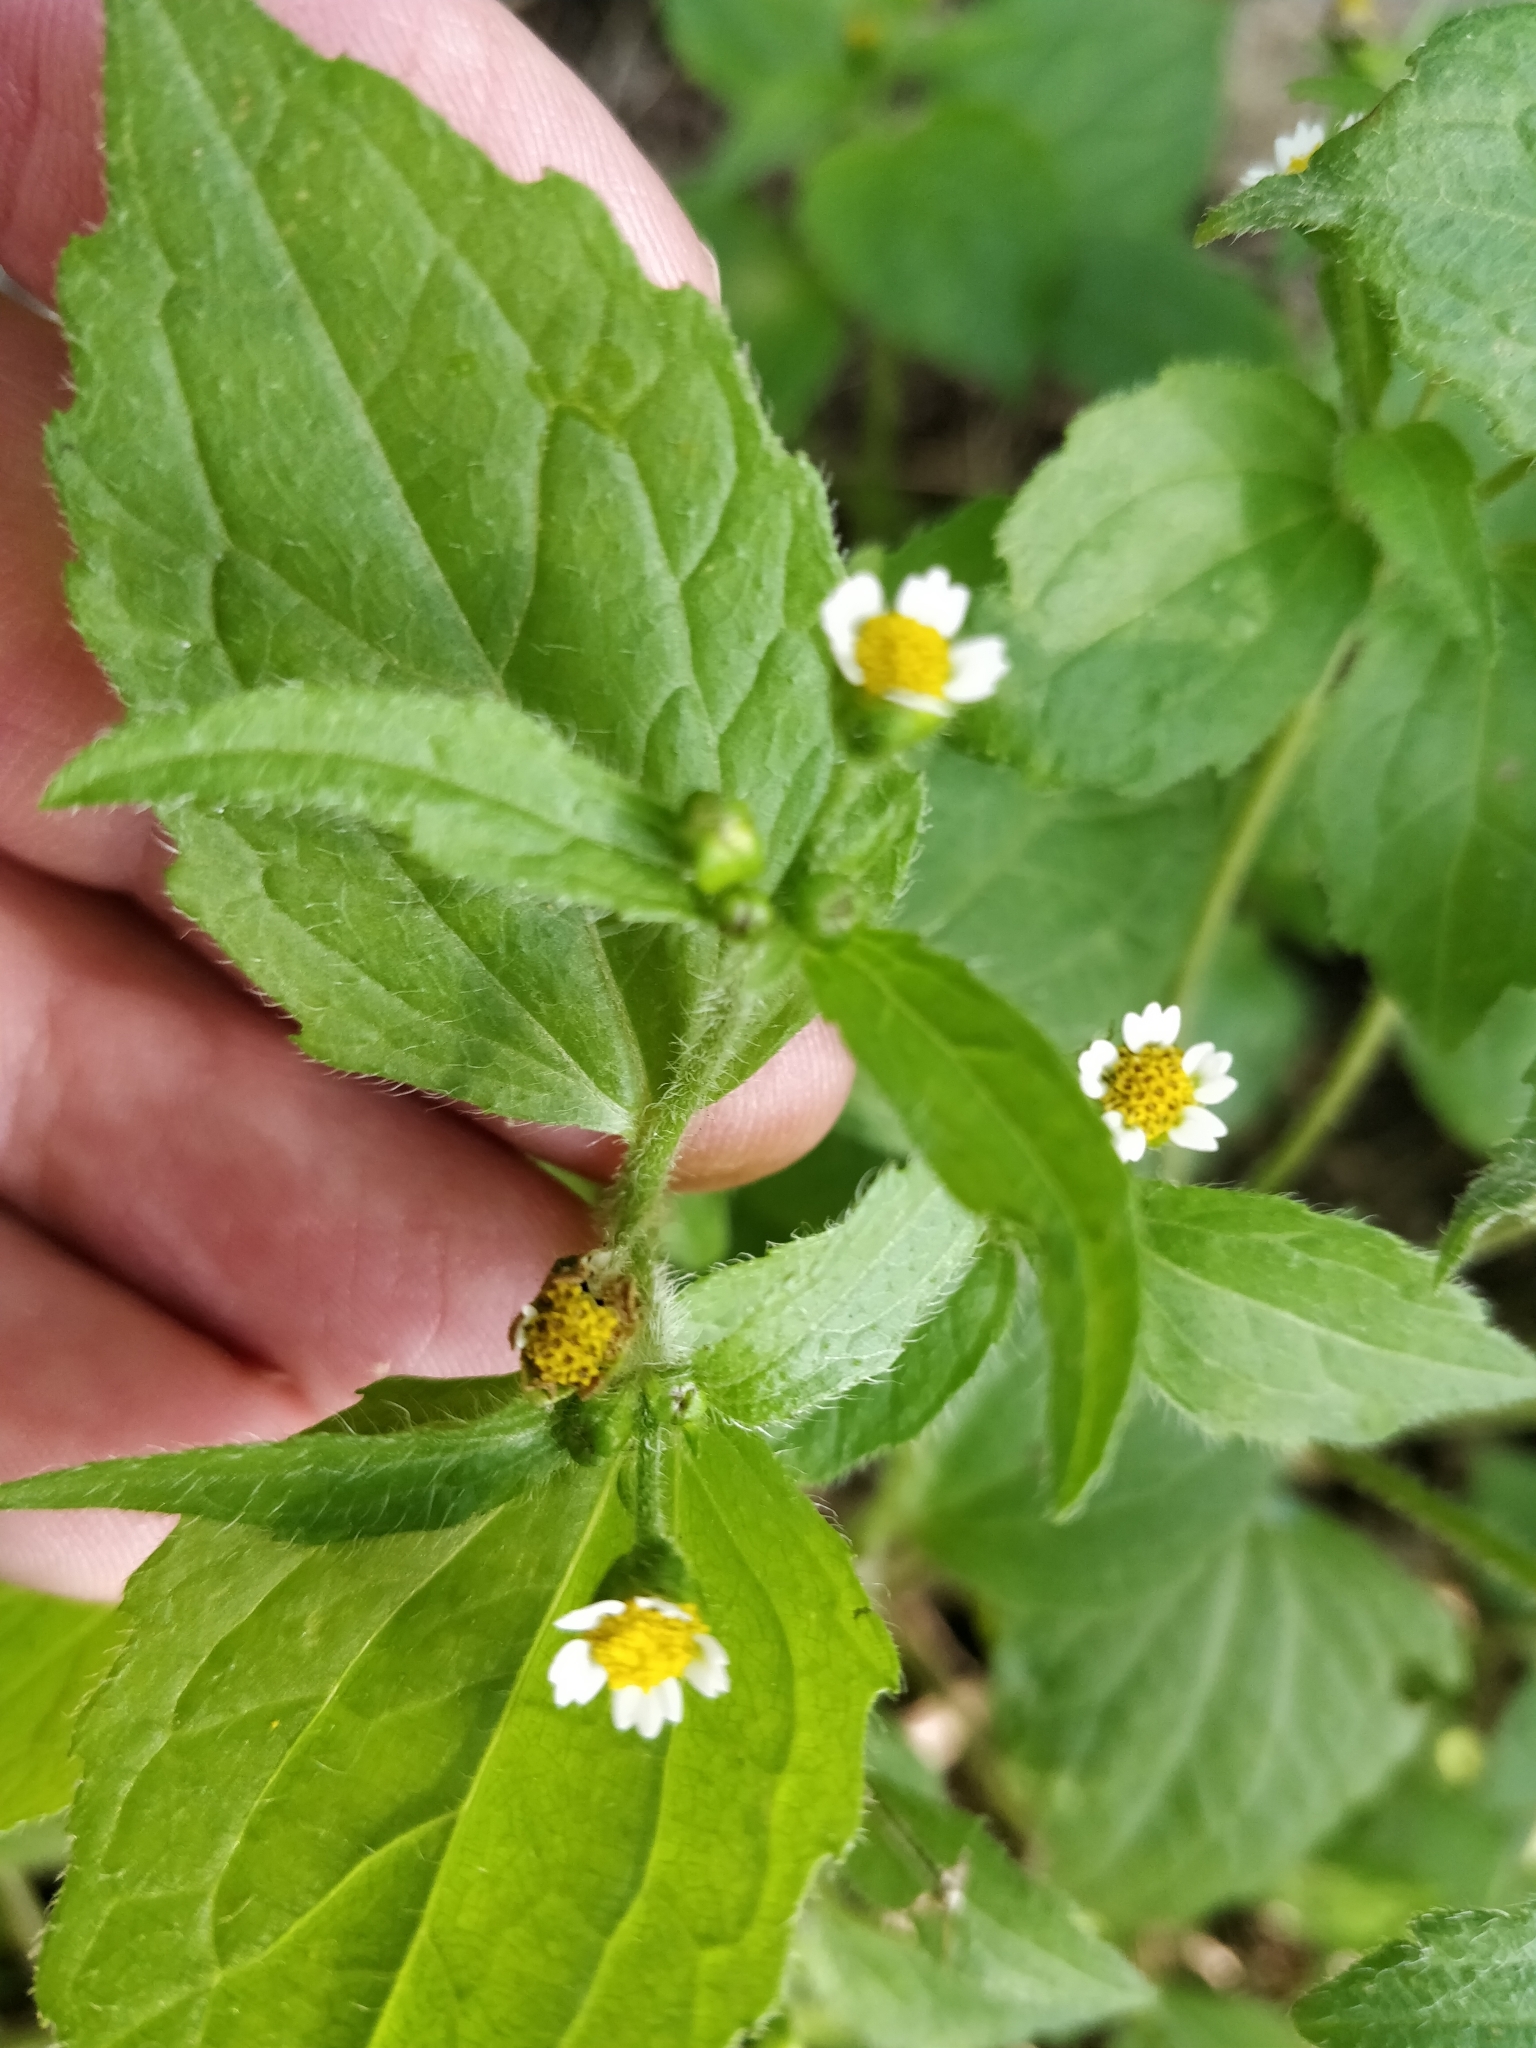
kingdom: Plantae
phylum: Tracheophyta
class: Magnoliopsida
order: Asterales
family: Asteraceae
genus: Galinsoga
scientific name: Galinsoga quadriradiata
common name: Shaggy soldier
